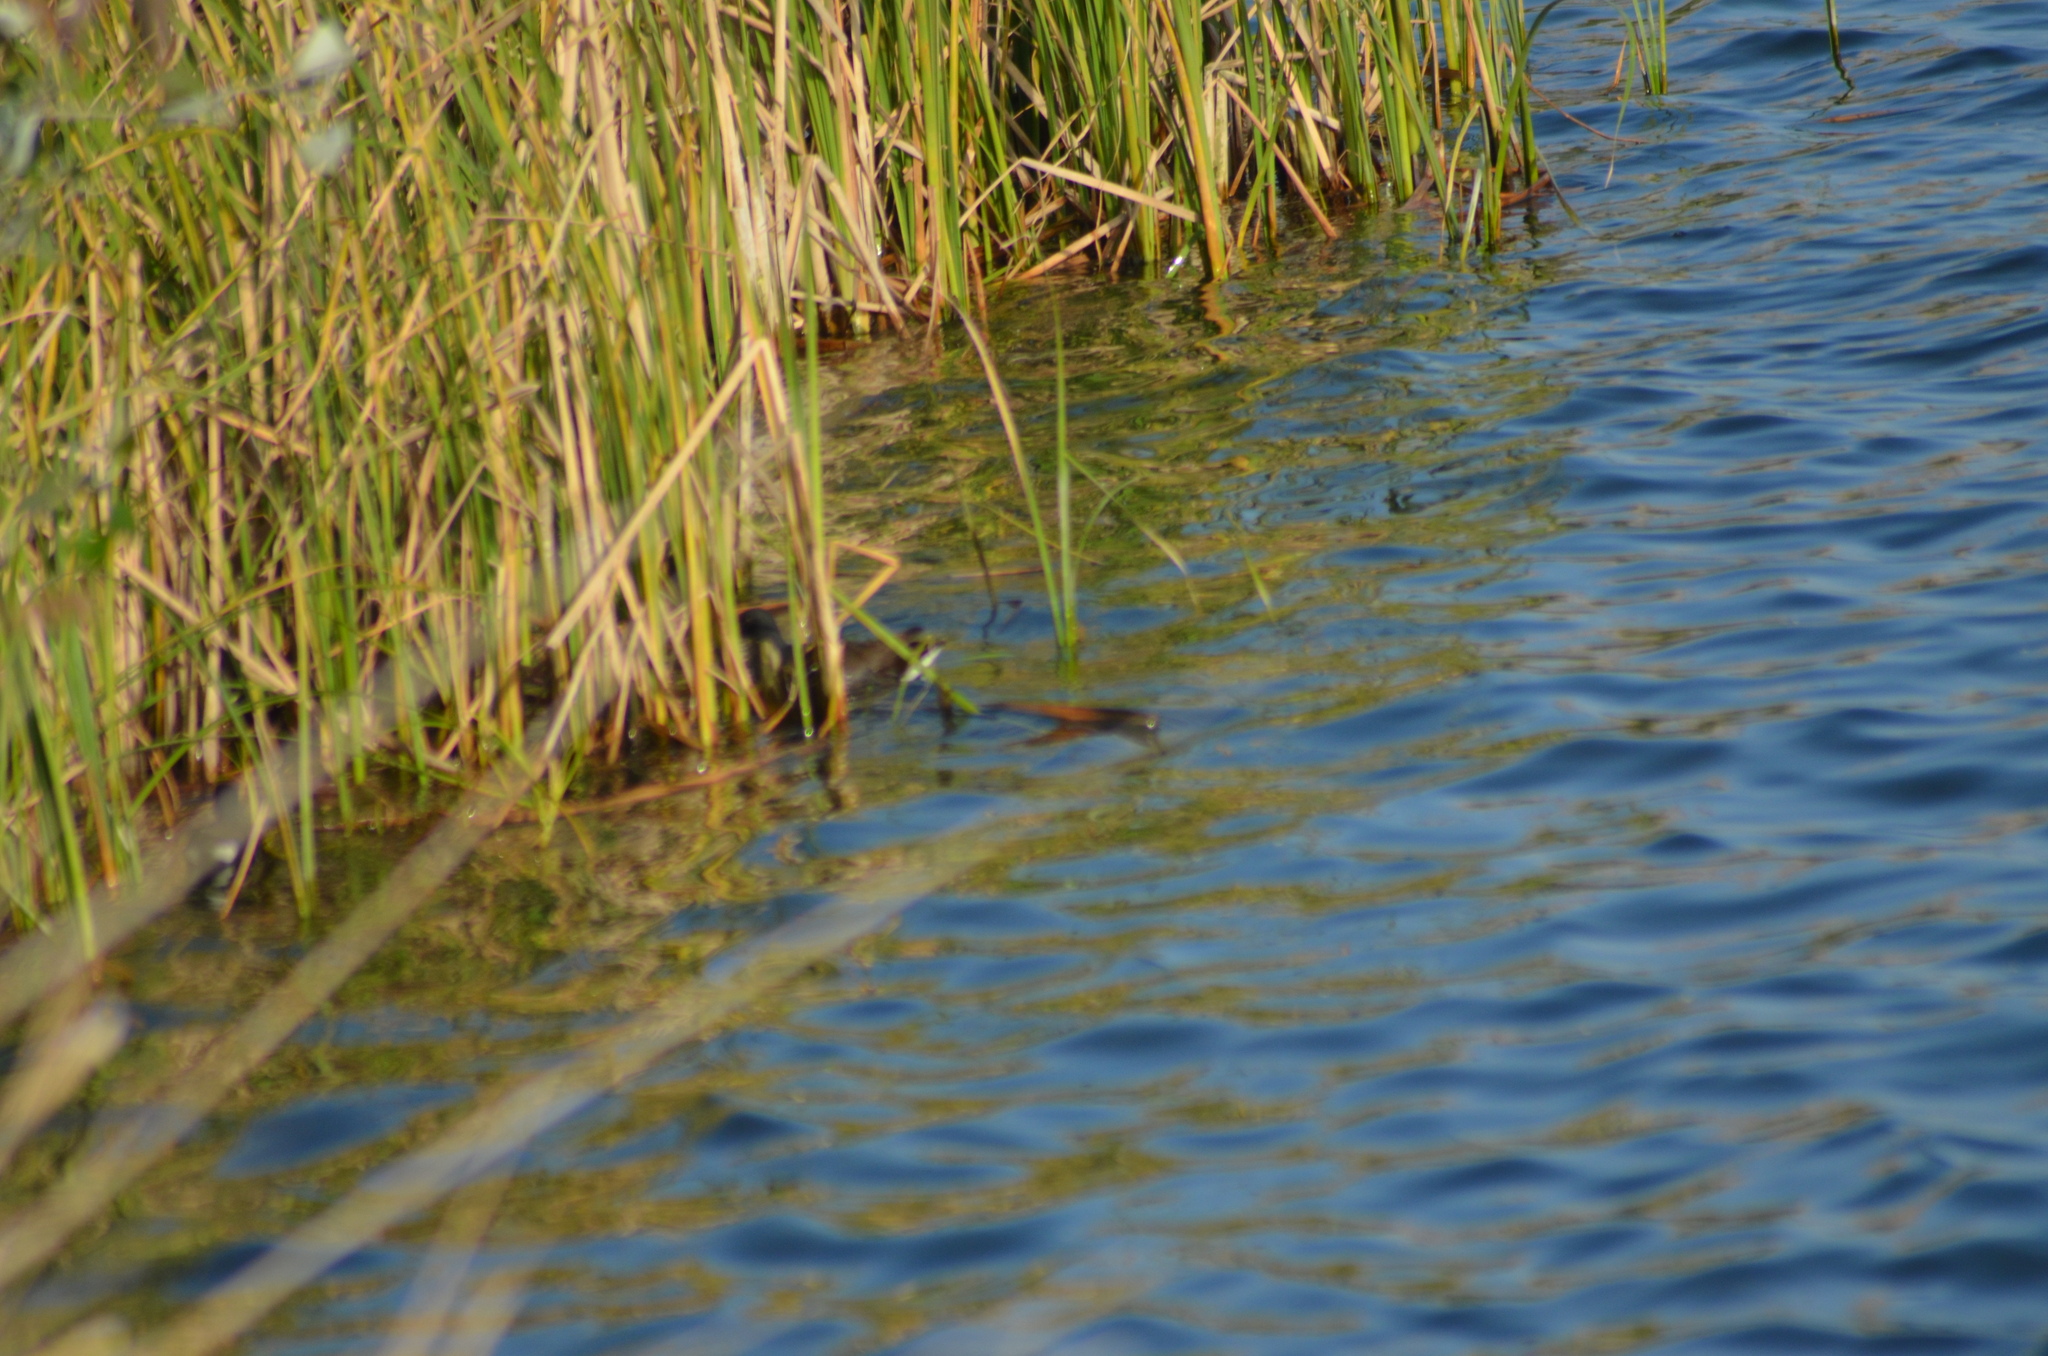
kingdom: Animalia
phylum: Chordata
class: Aves
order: Gruiformes
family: Rallidae
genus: Gallinula
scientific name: Gallinula chloropus
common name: Common moorhen
